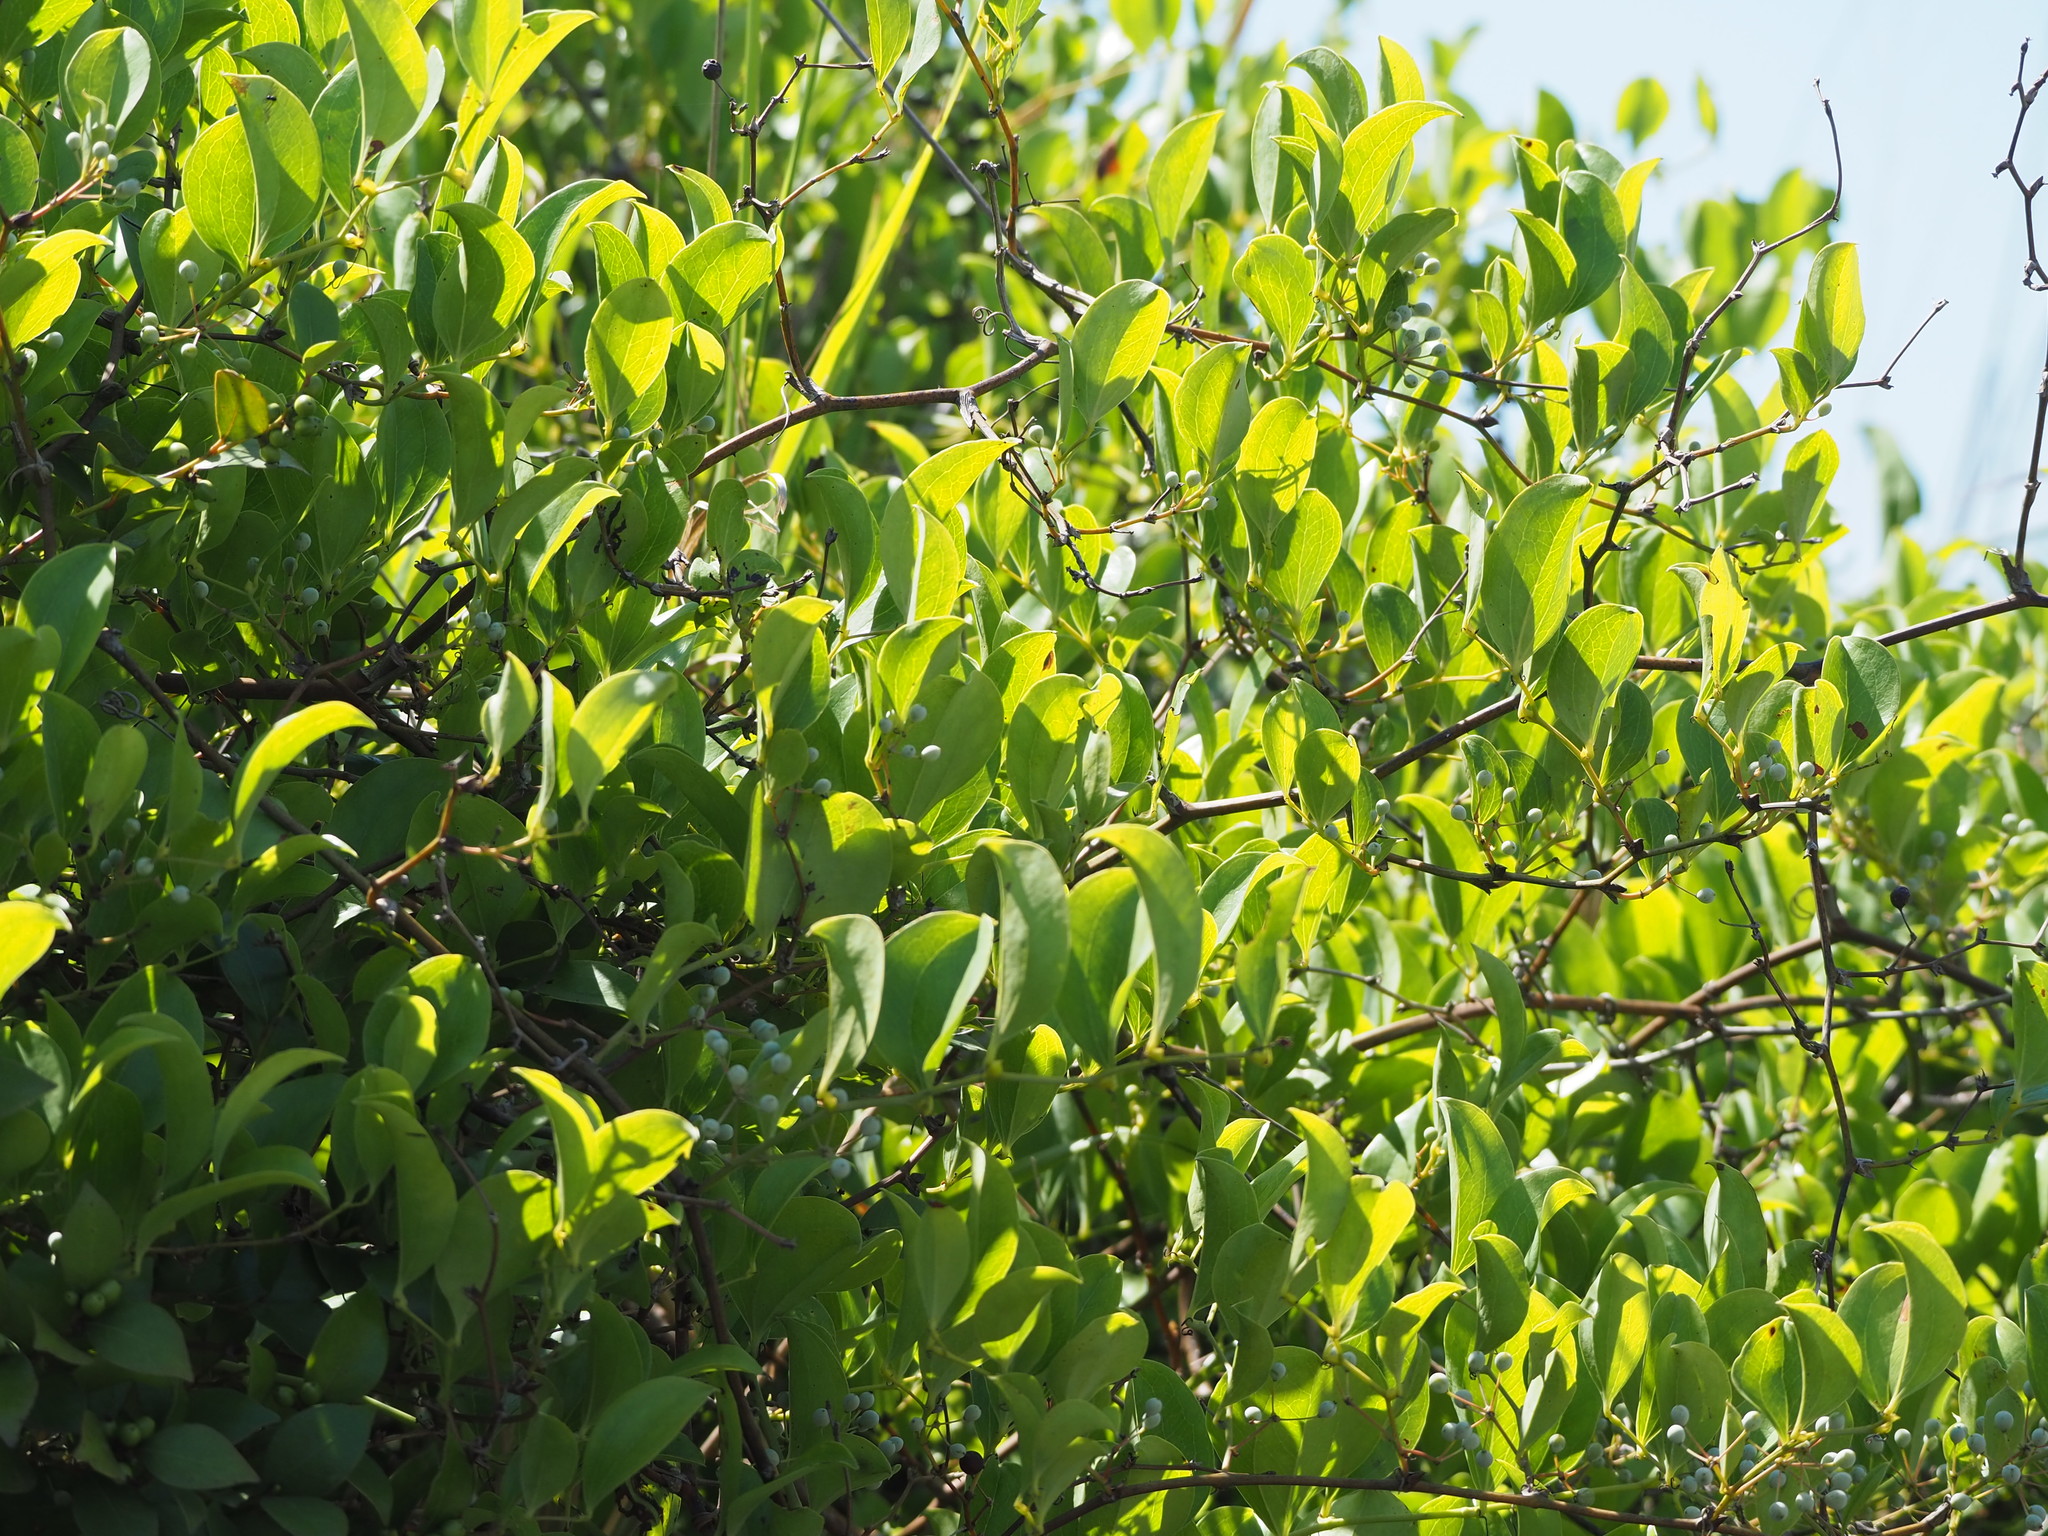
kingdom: Plantae
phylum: Tracheophyta
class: Liliopsida
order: Liliales
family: Smilacaceae
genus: Smilax
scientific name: Smilax china
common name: Chinaroot
